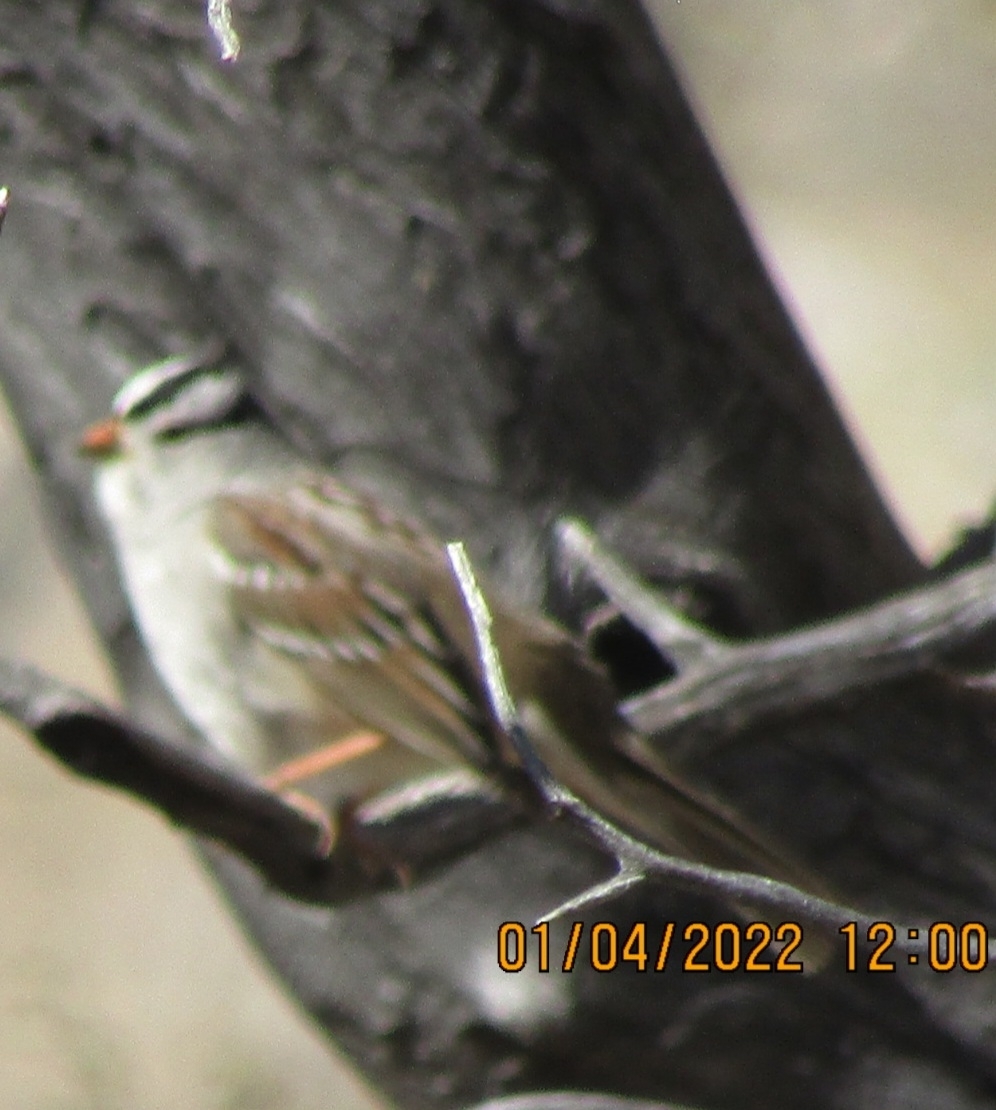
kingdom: Animalia
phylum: Chordata
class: Aves
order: Passeriformes
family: Passerellidae
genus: Zonotrichia
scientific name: Zonotrichia leucophrys
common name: White-crowned sparrow
